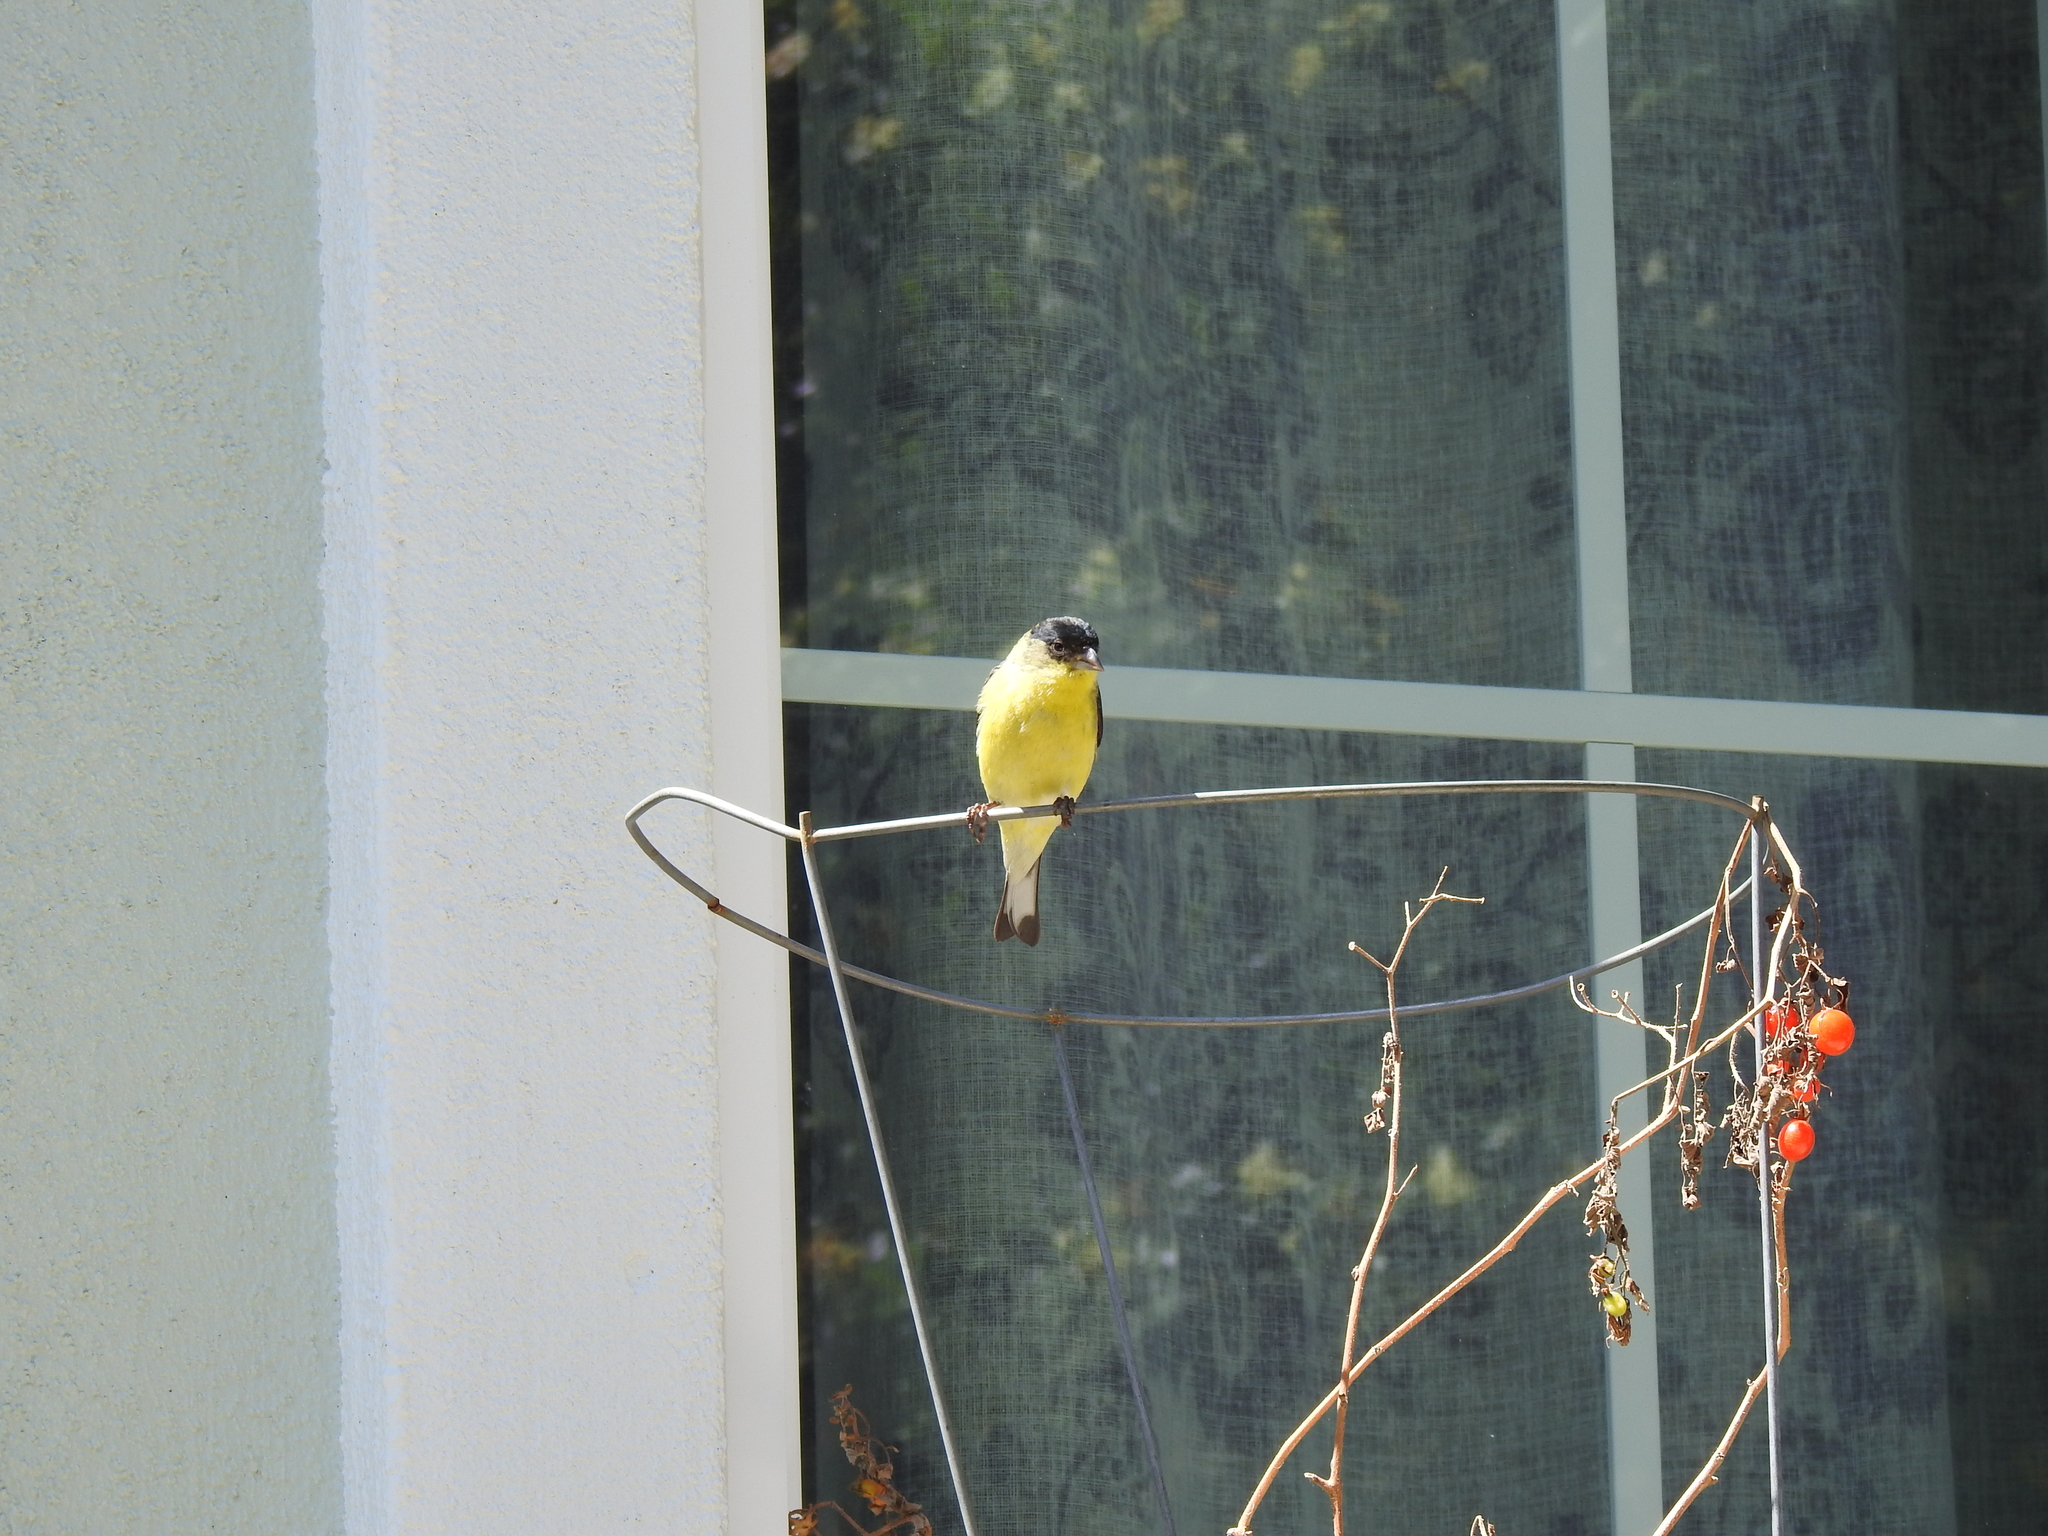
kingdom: Animalia
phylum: Chordata
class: Aves
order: Passeriformes
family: Fringillidae
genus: Spinus
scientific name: Spinus psaltria
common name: Lesser goldfinch
